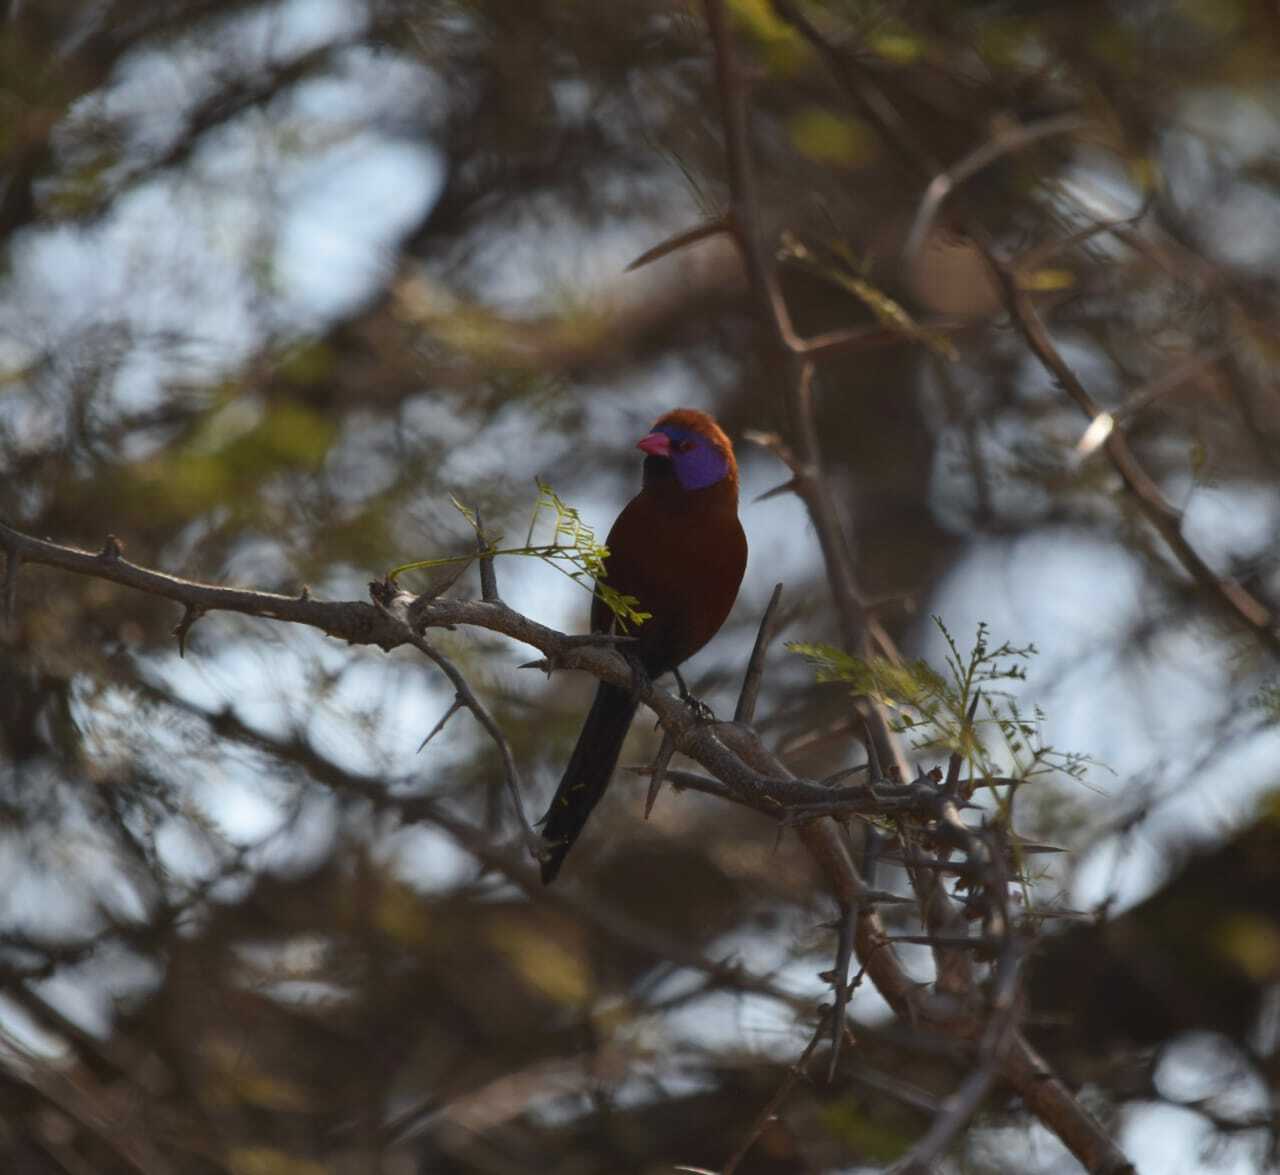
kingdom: Animalia
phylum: Chordata
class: Aves
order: Passeriformes
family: Estrildidae
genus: Uraeginthus
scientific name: Uraeginthus granatinus
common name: Violet-eared waxbill
